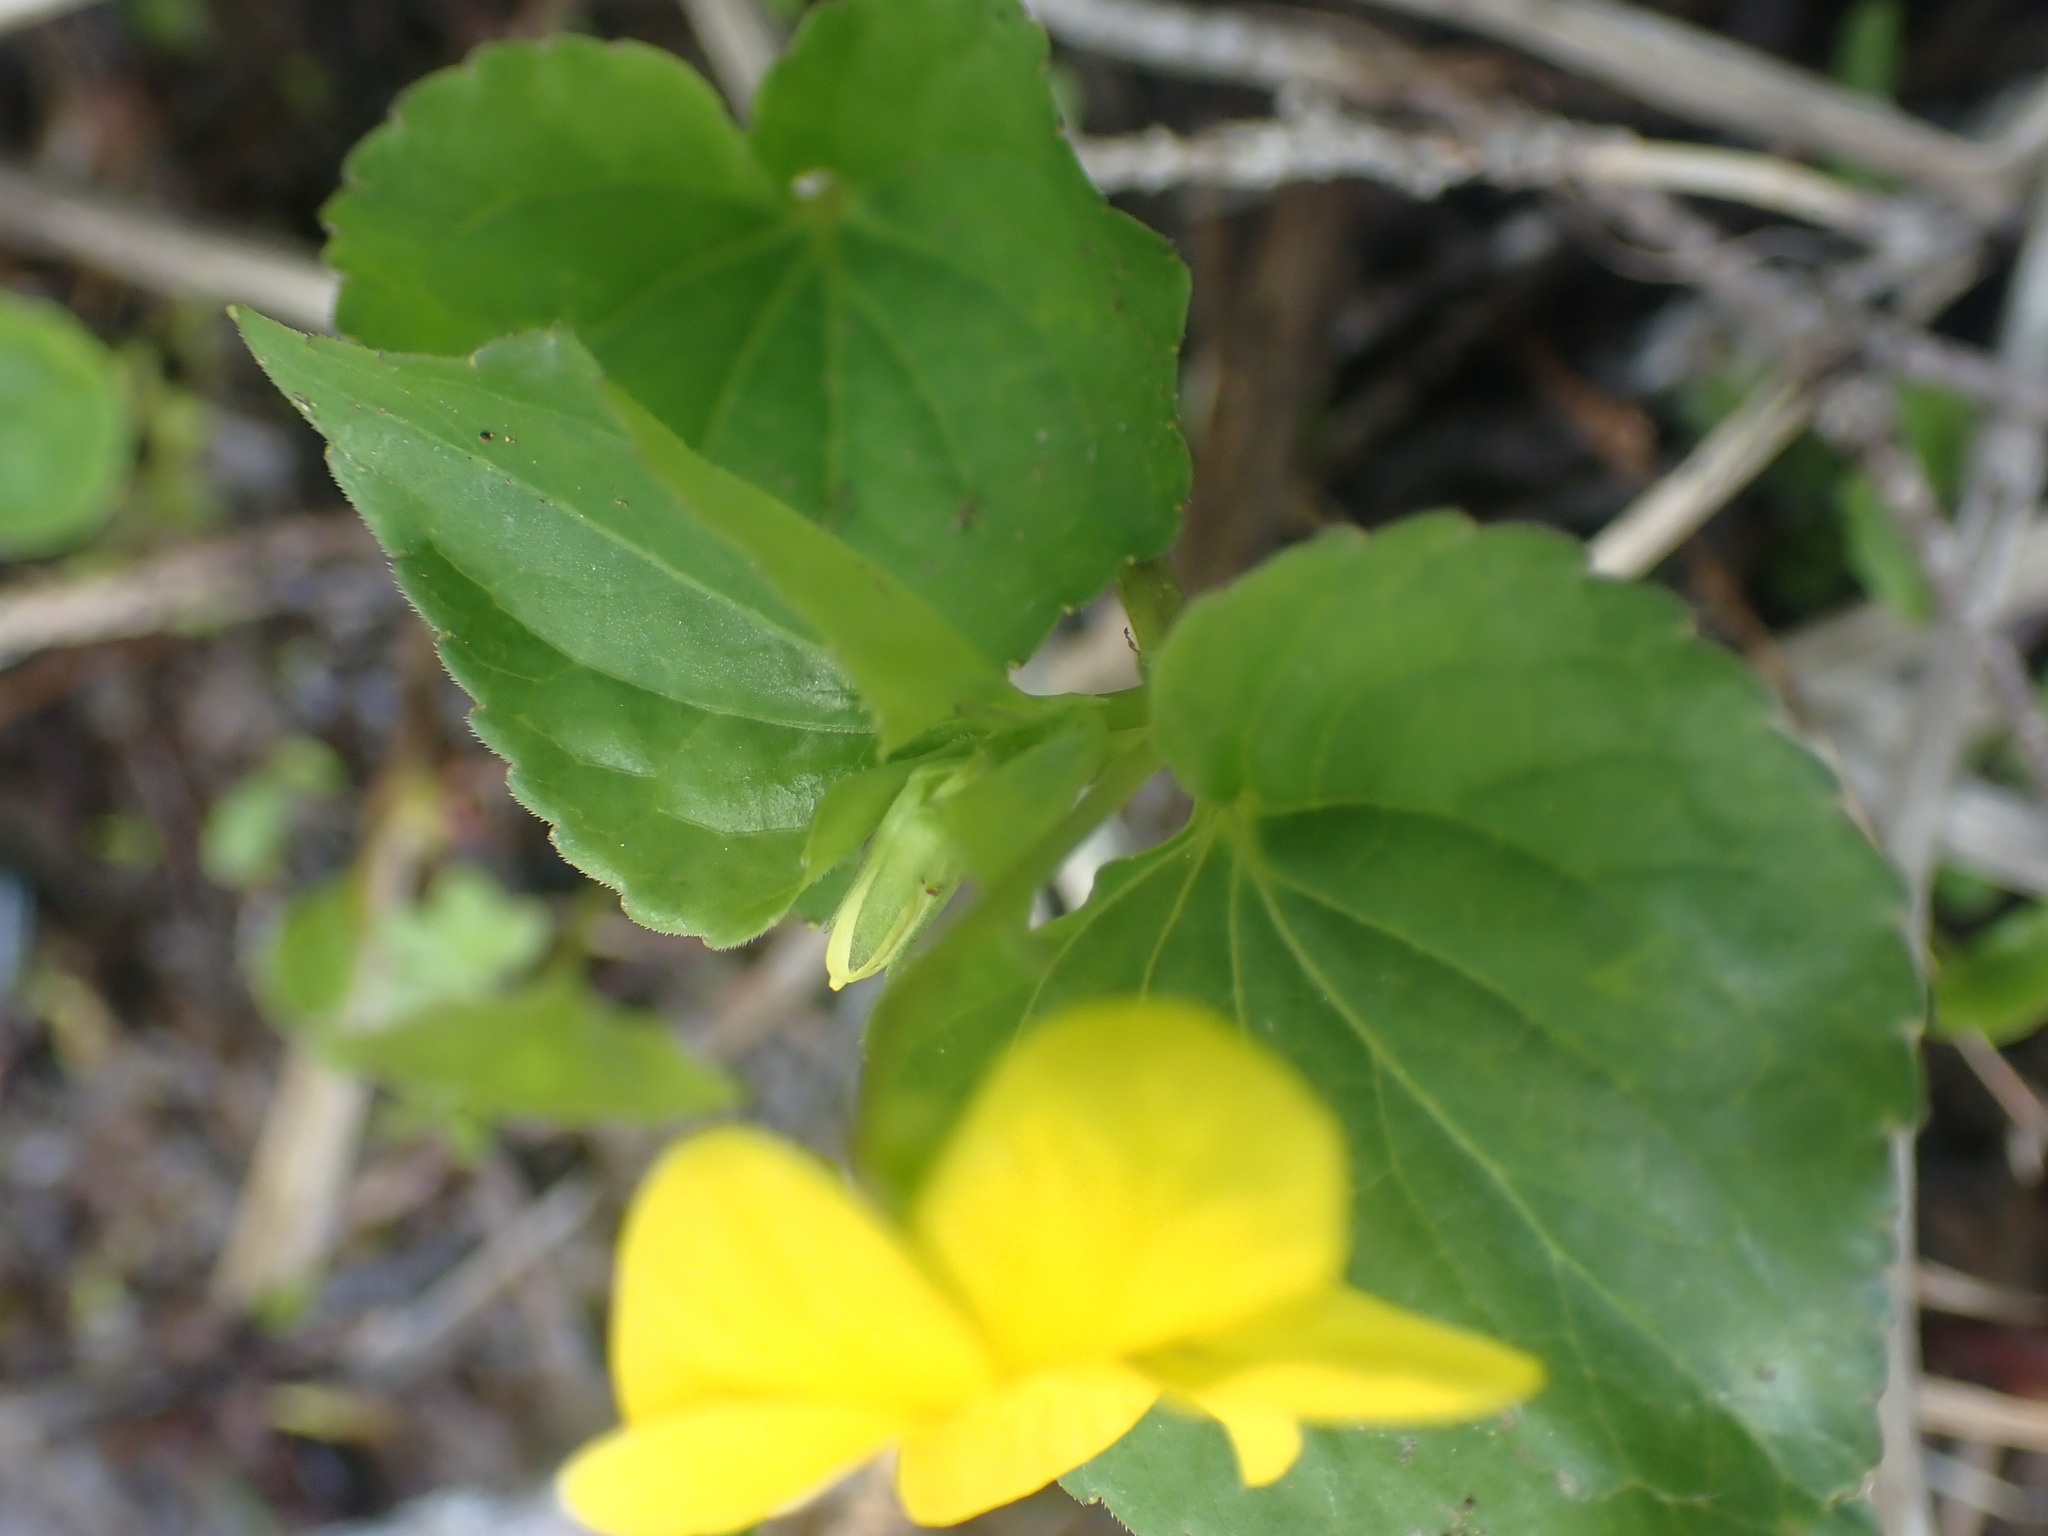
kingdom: Plantae
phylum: Tracheophyta
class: Magnoliopsida
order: Malpighiales
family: Violaceae
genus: Viola
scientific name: Viola glabella
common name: Stream violet
